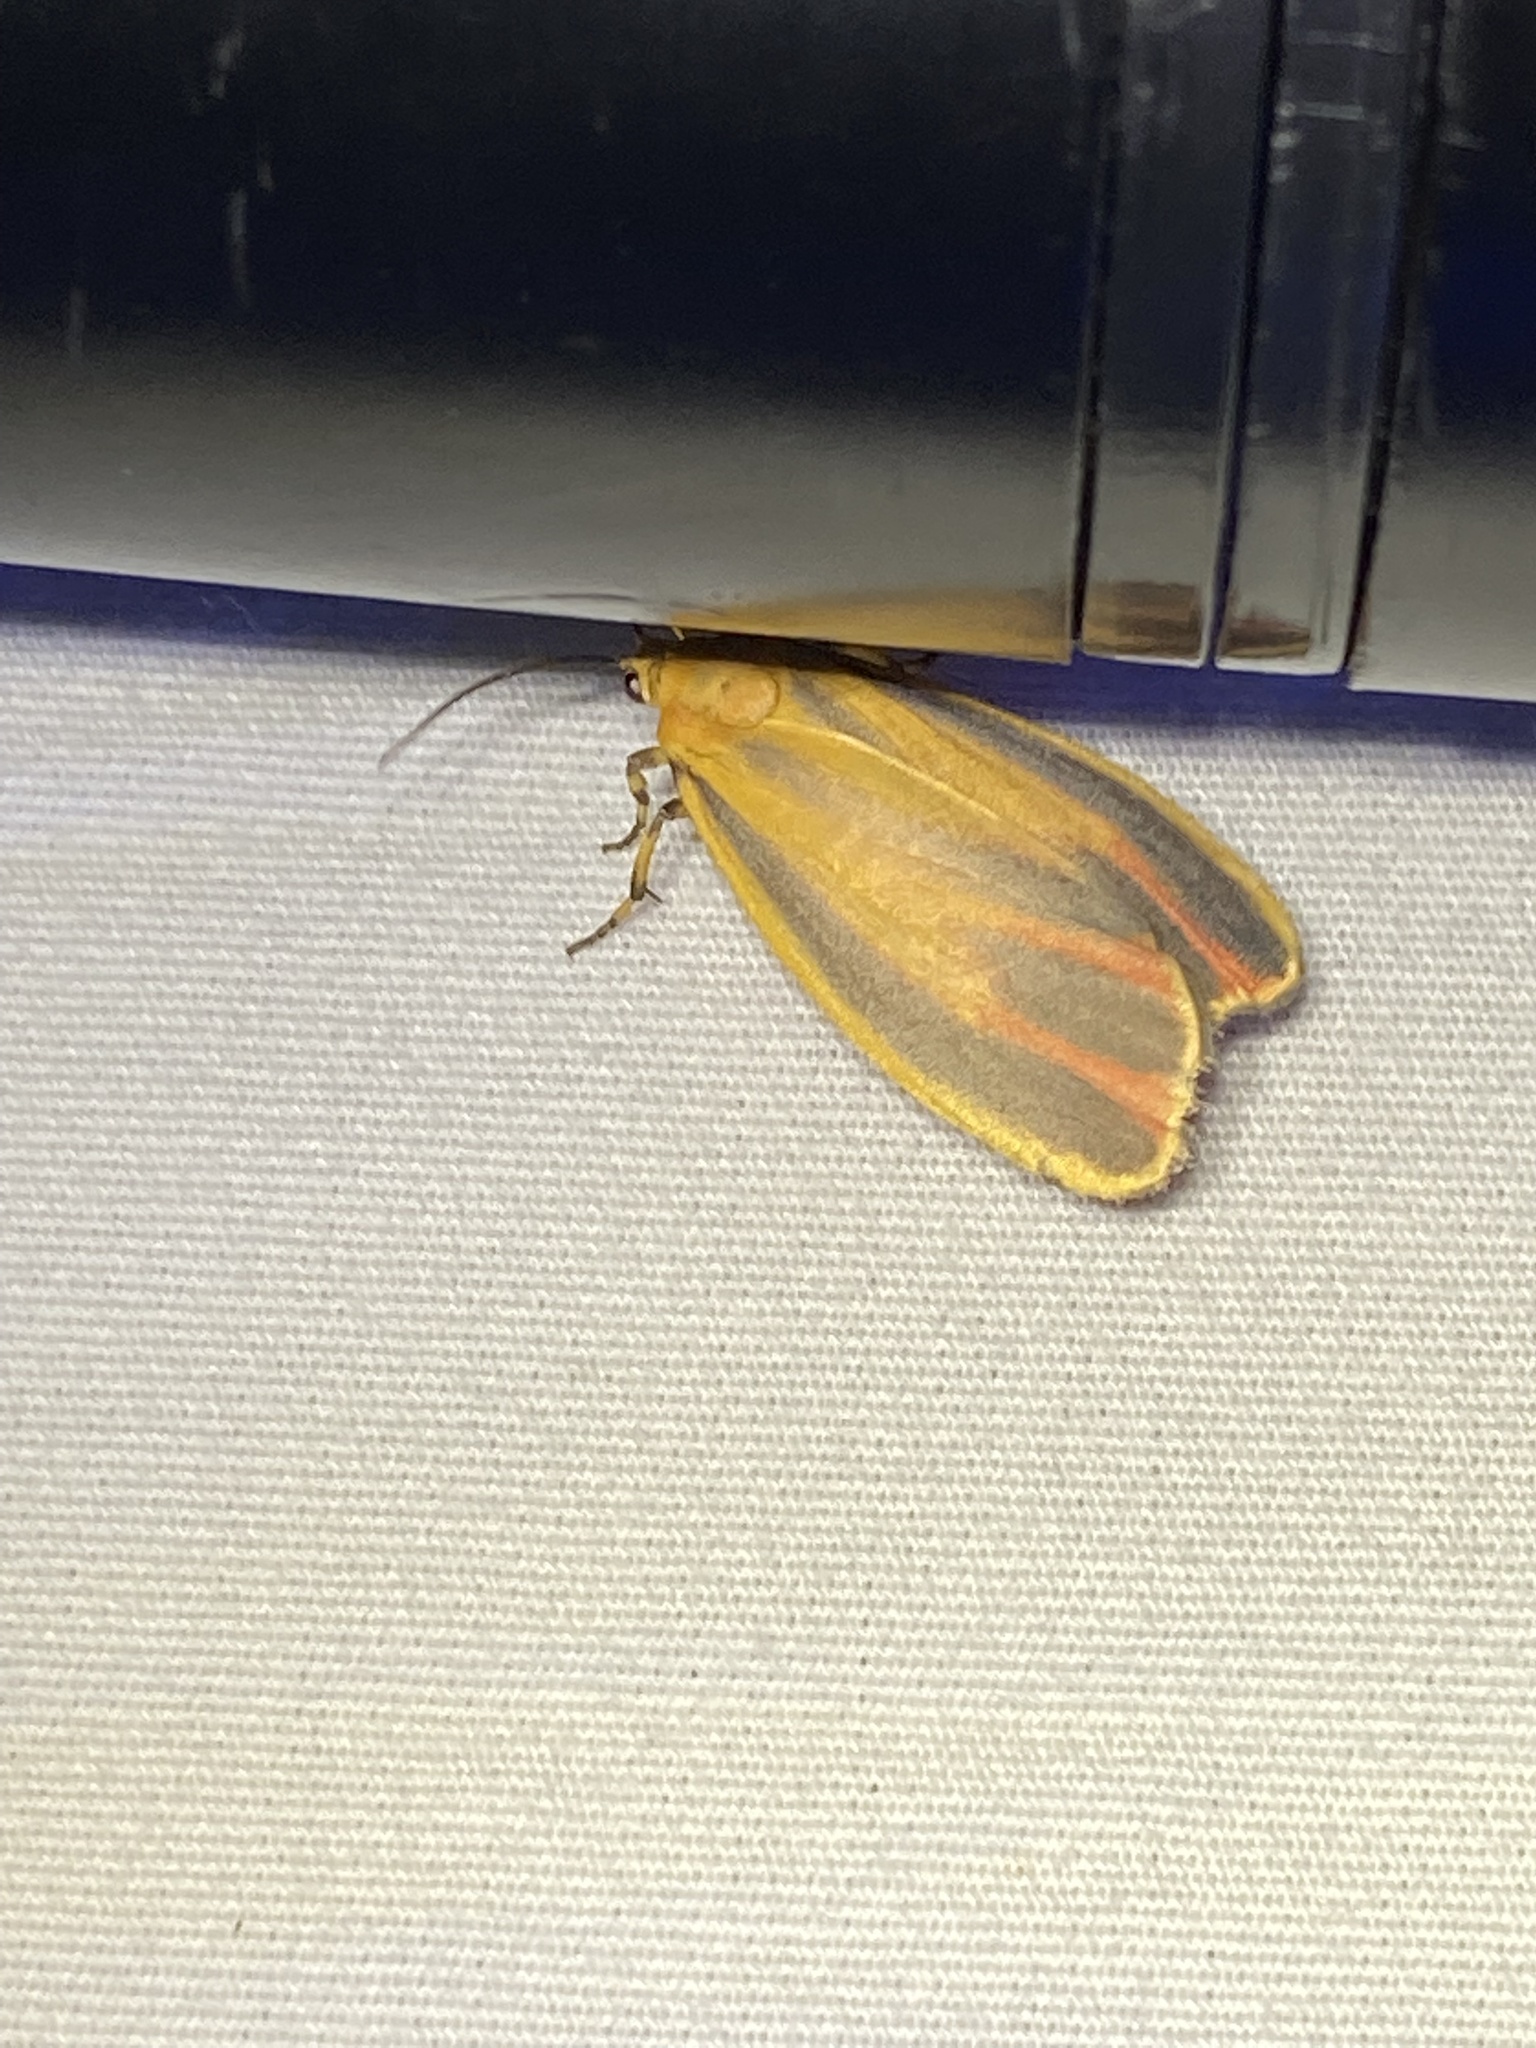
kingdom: Animalia
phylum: Arthropoda
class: Insecta
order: Lepidoptera
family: Erebidae
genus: Hypoprepia
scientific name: Hypoprepia fucosa
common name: Painted lichen moth
